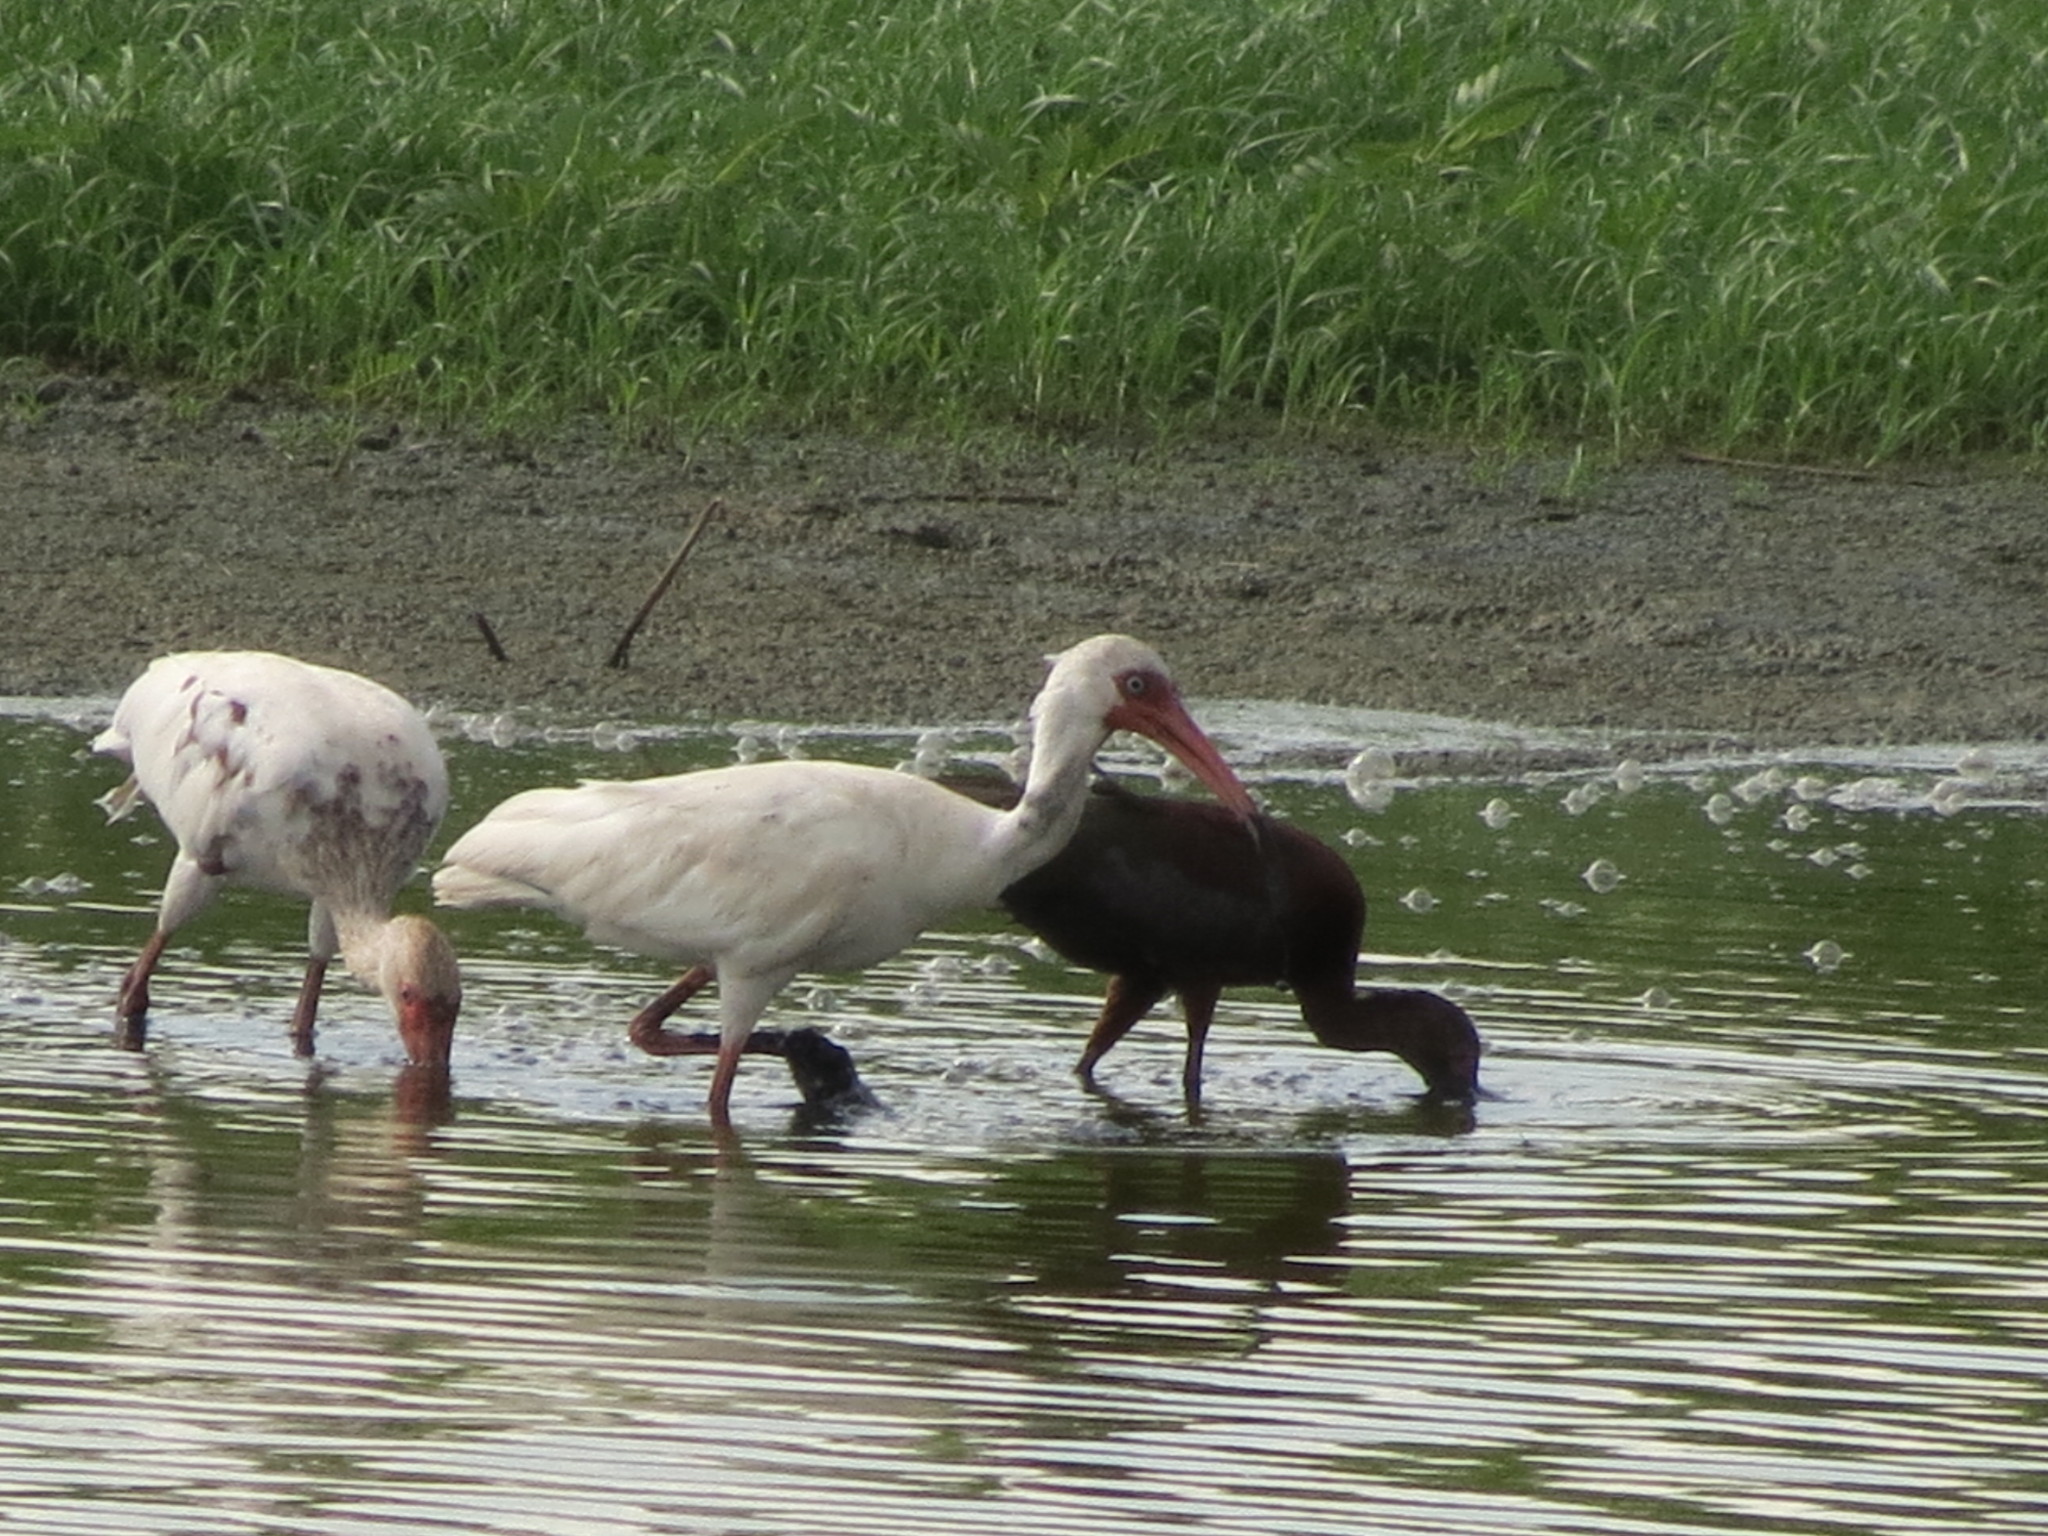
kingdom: Animalia
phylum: Chordata
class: Aves
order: Pelecaniformes
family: Threskiornithidae
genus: Eudocimus
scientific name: Eudocimus albus
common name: White ibis
